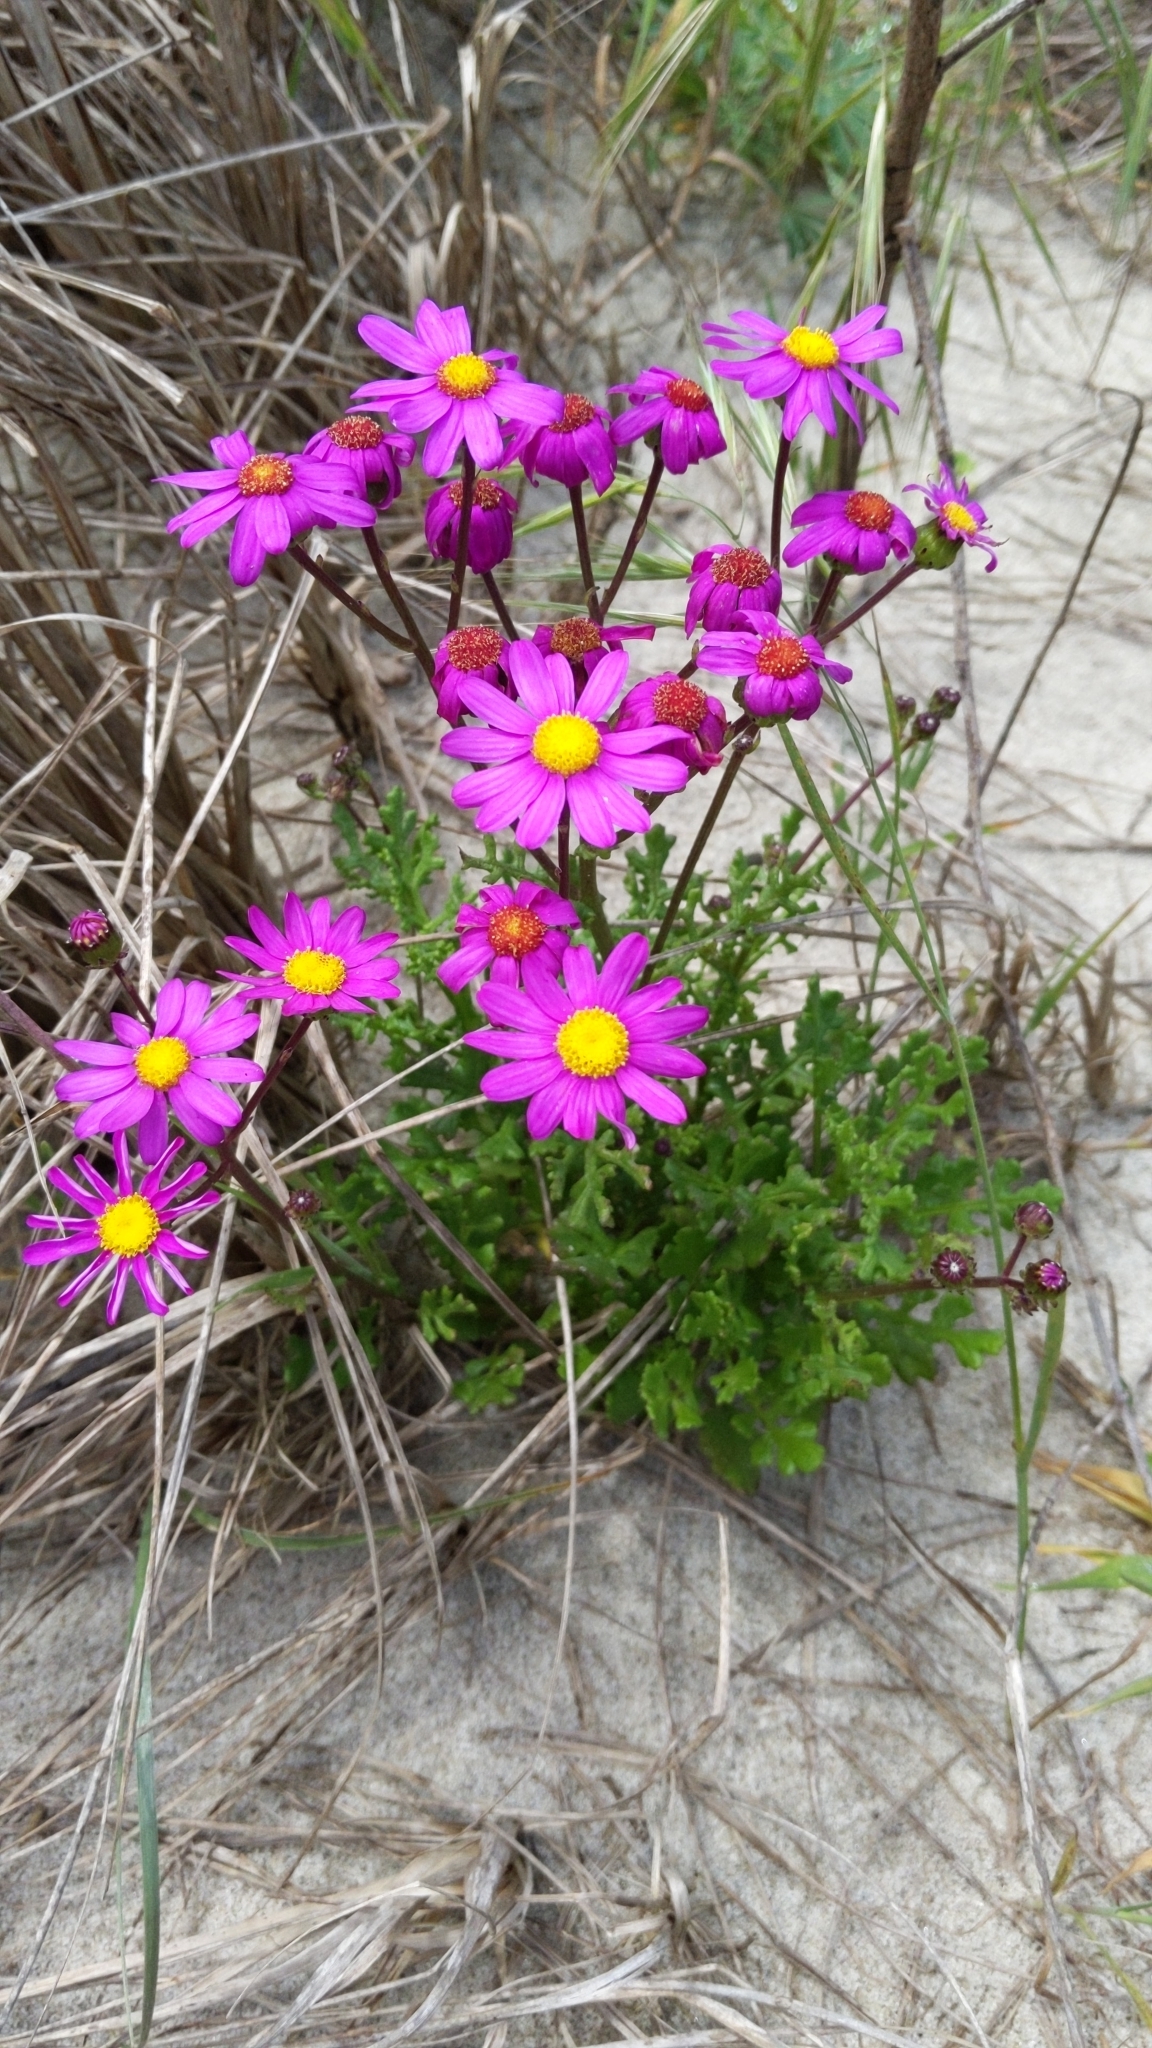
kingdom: Plantae
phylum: Tracheophyta
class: Magnoliopsida
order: Asterales
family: Asteraceae
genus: Senecio
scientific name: Senecio elegans
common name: Purple groundsel
